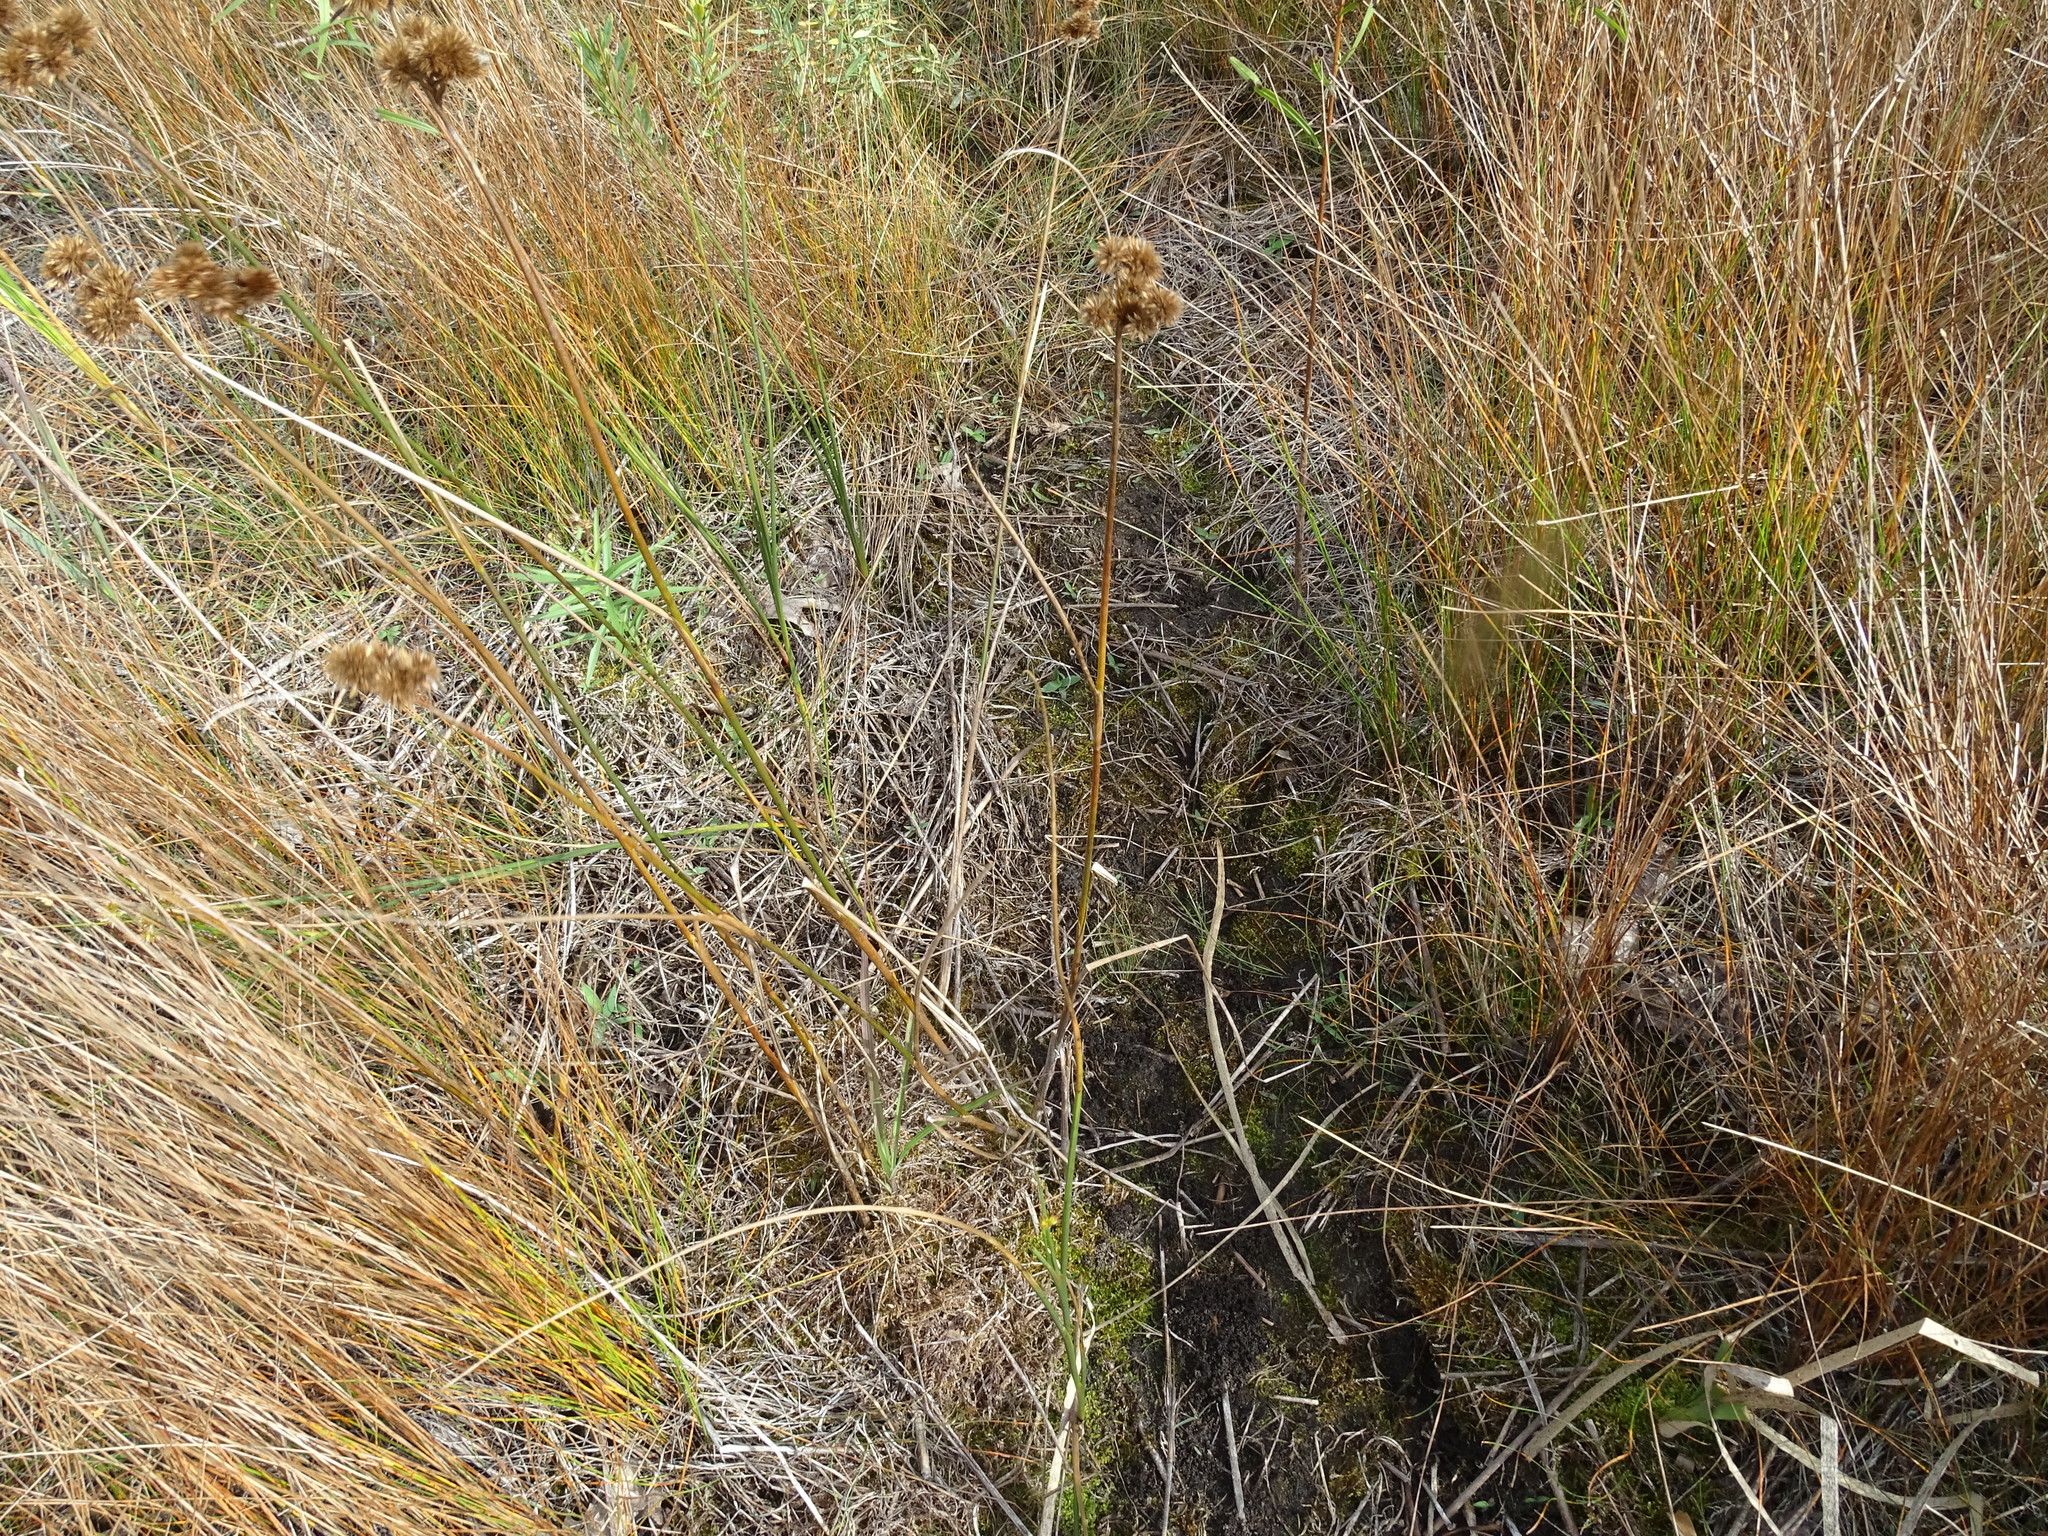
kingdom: Plantae
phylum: Tracheophyta
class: Liliopsida
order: Poales
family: Juncaceae
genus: Juncus
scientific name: Juncus torreyi
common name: Torrey's rush
